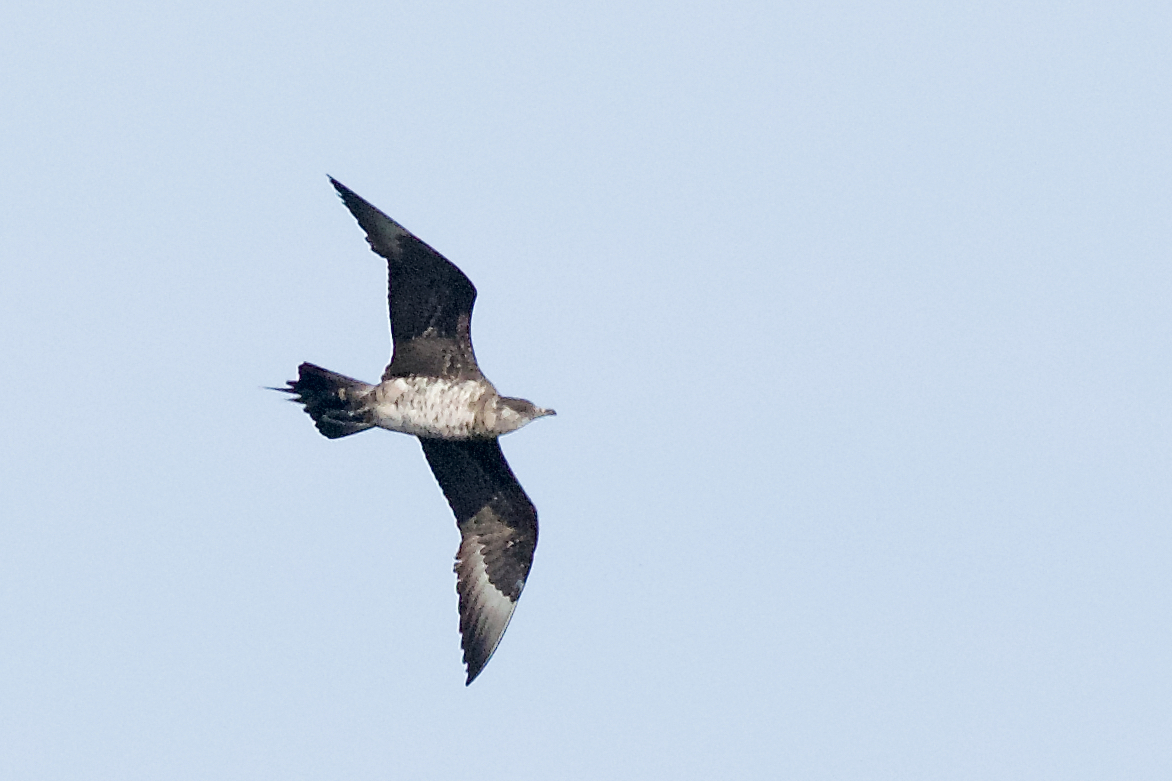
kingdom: Animalia
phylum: Chordata
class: Aves
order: Charadriiformes
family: Stercorariidae
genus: Stercorarius
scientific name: Stercorarius parasiticus
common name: Parasitic jaeger
